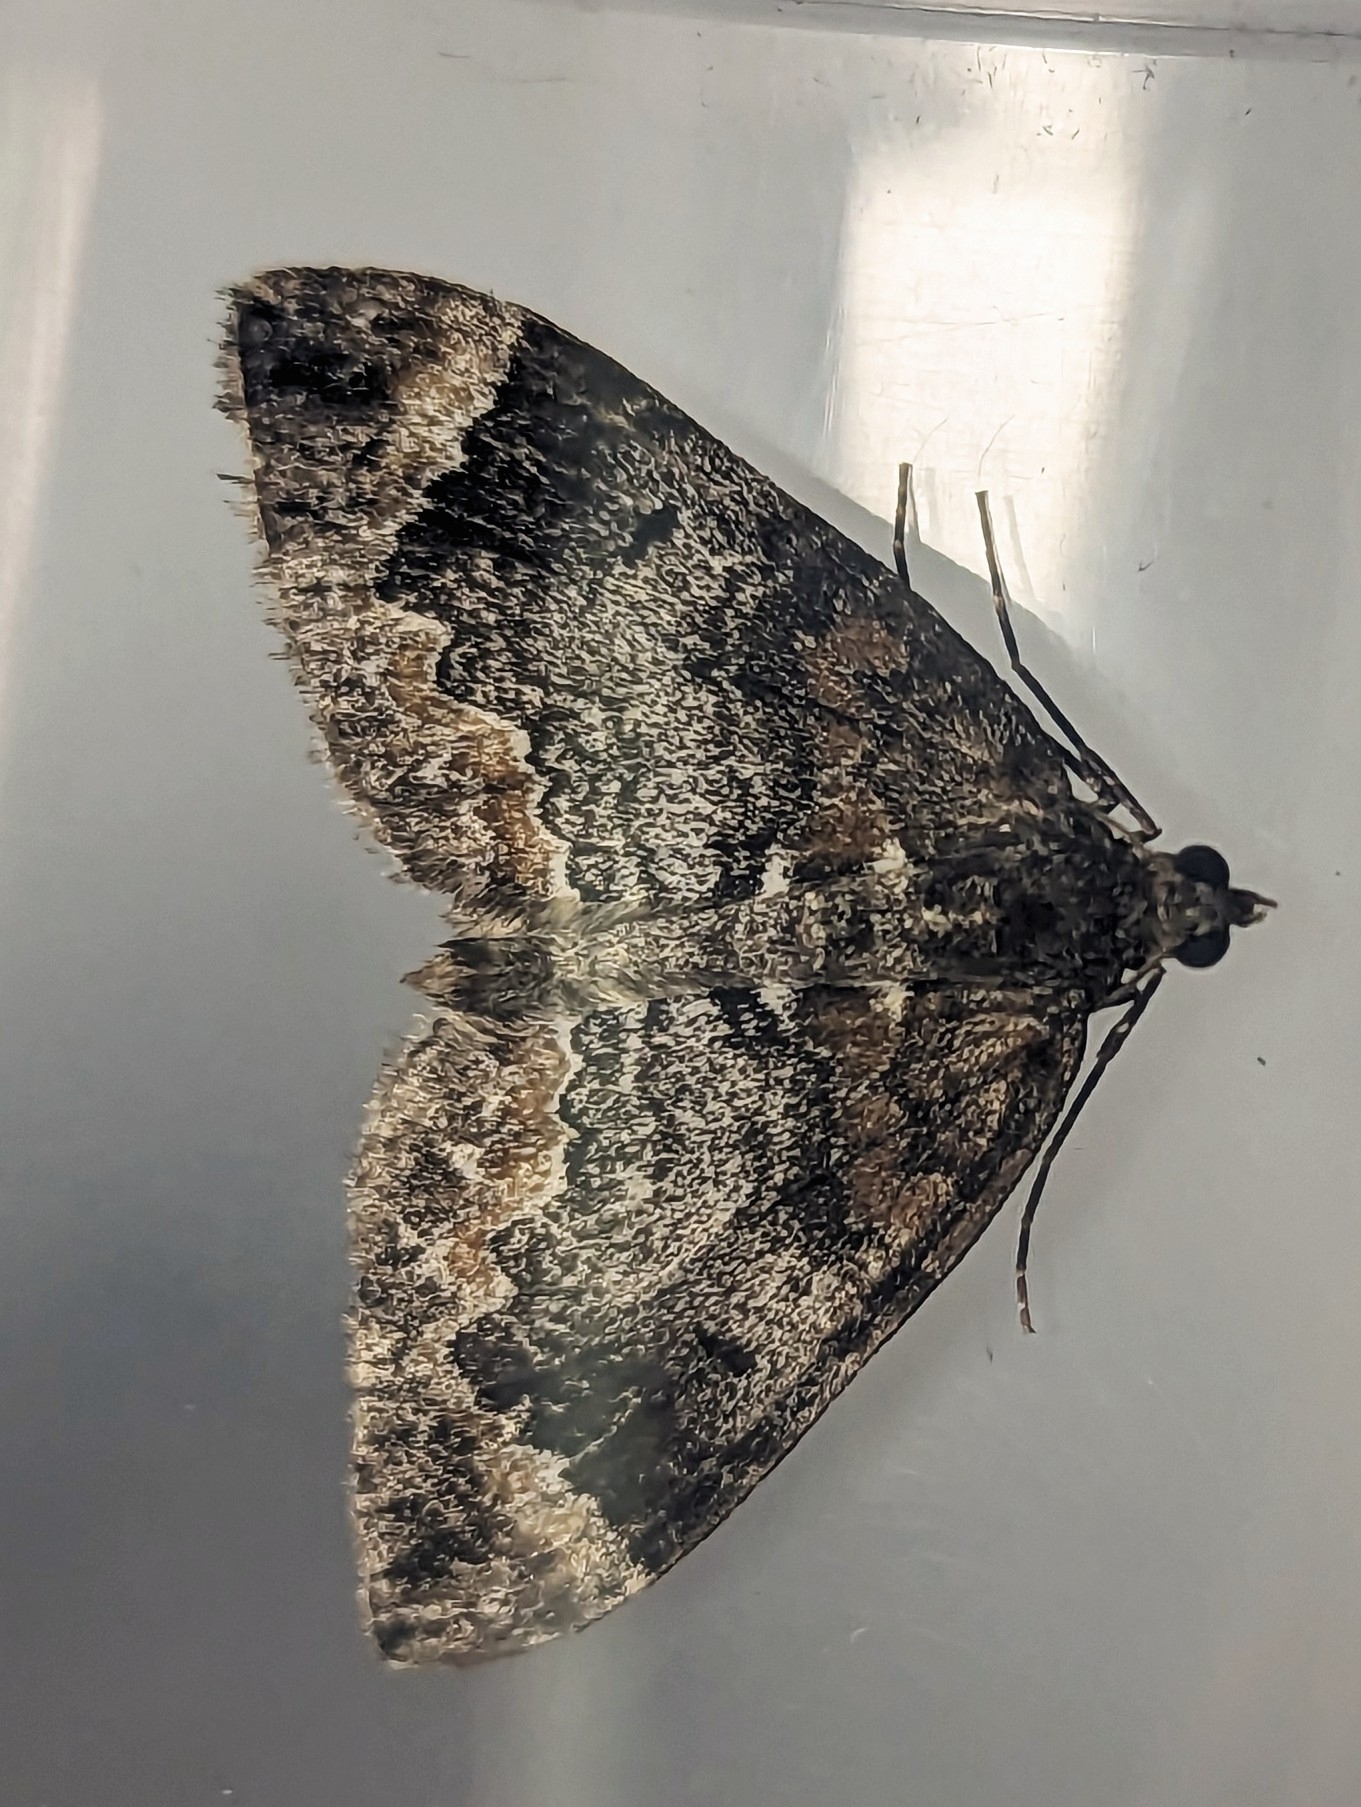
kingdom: Animalia
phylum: Arthropoda
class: Insecta
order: Lepidoptera
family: Geometridae
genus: Dysstroma
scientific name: Dysstroma
